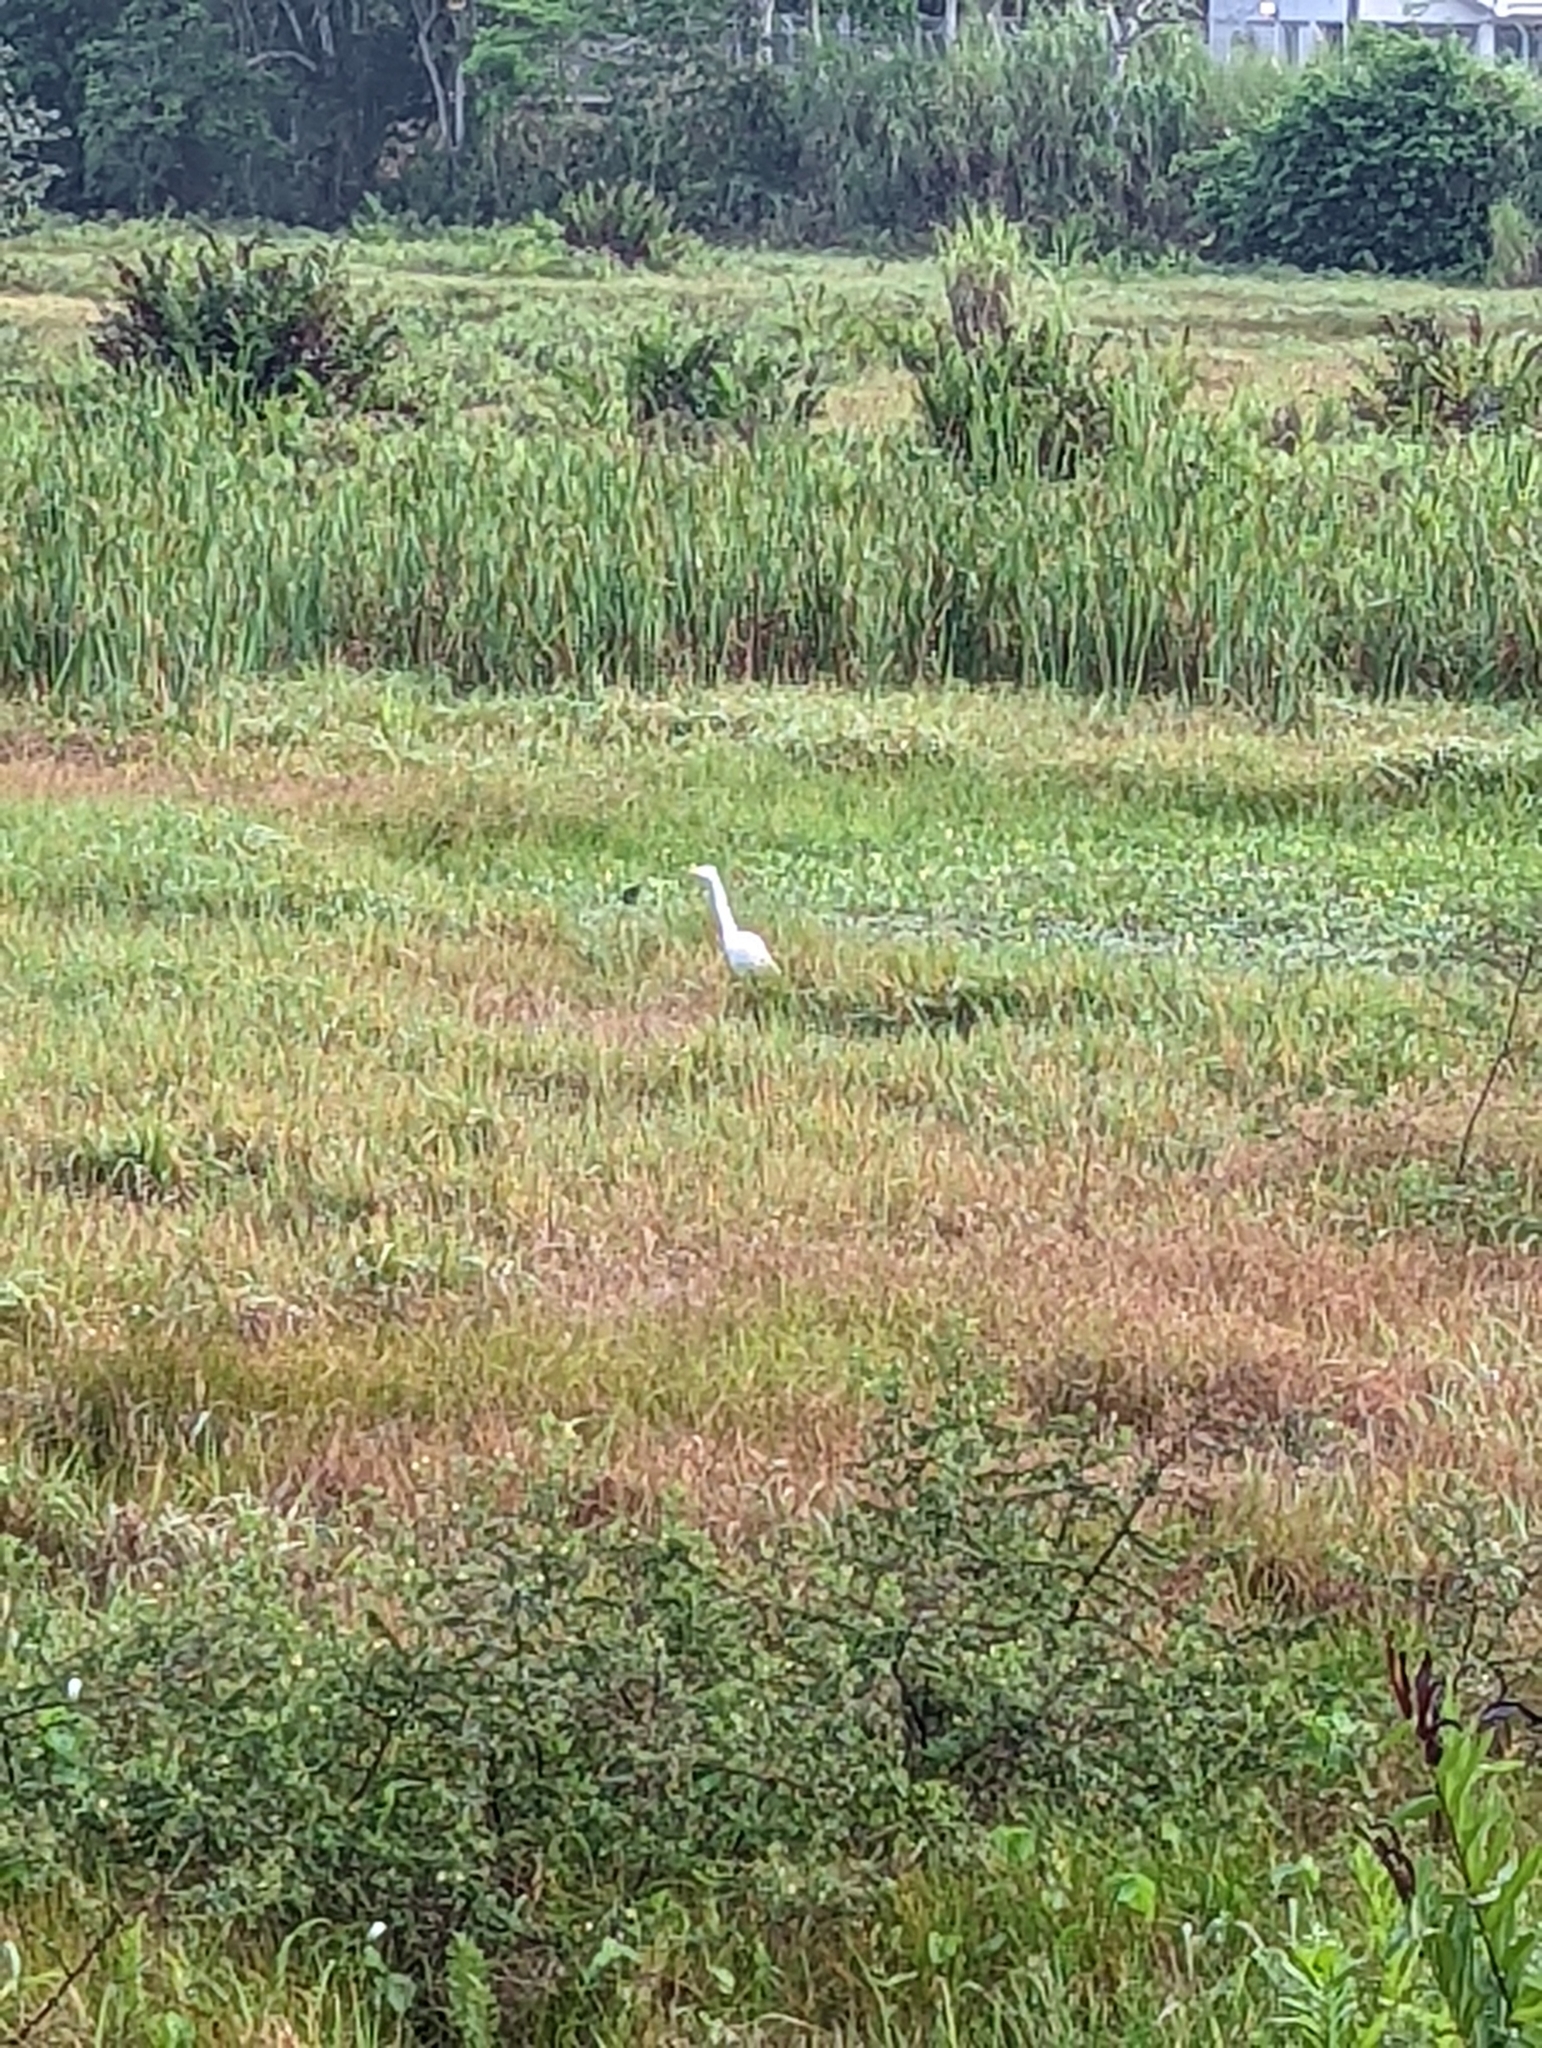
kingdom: Animalia
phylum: Chordata
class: Aves
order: Pelecaniformes
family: Ardeidae
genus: Ardea
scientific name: Ardea alba
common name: Great egret
